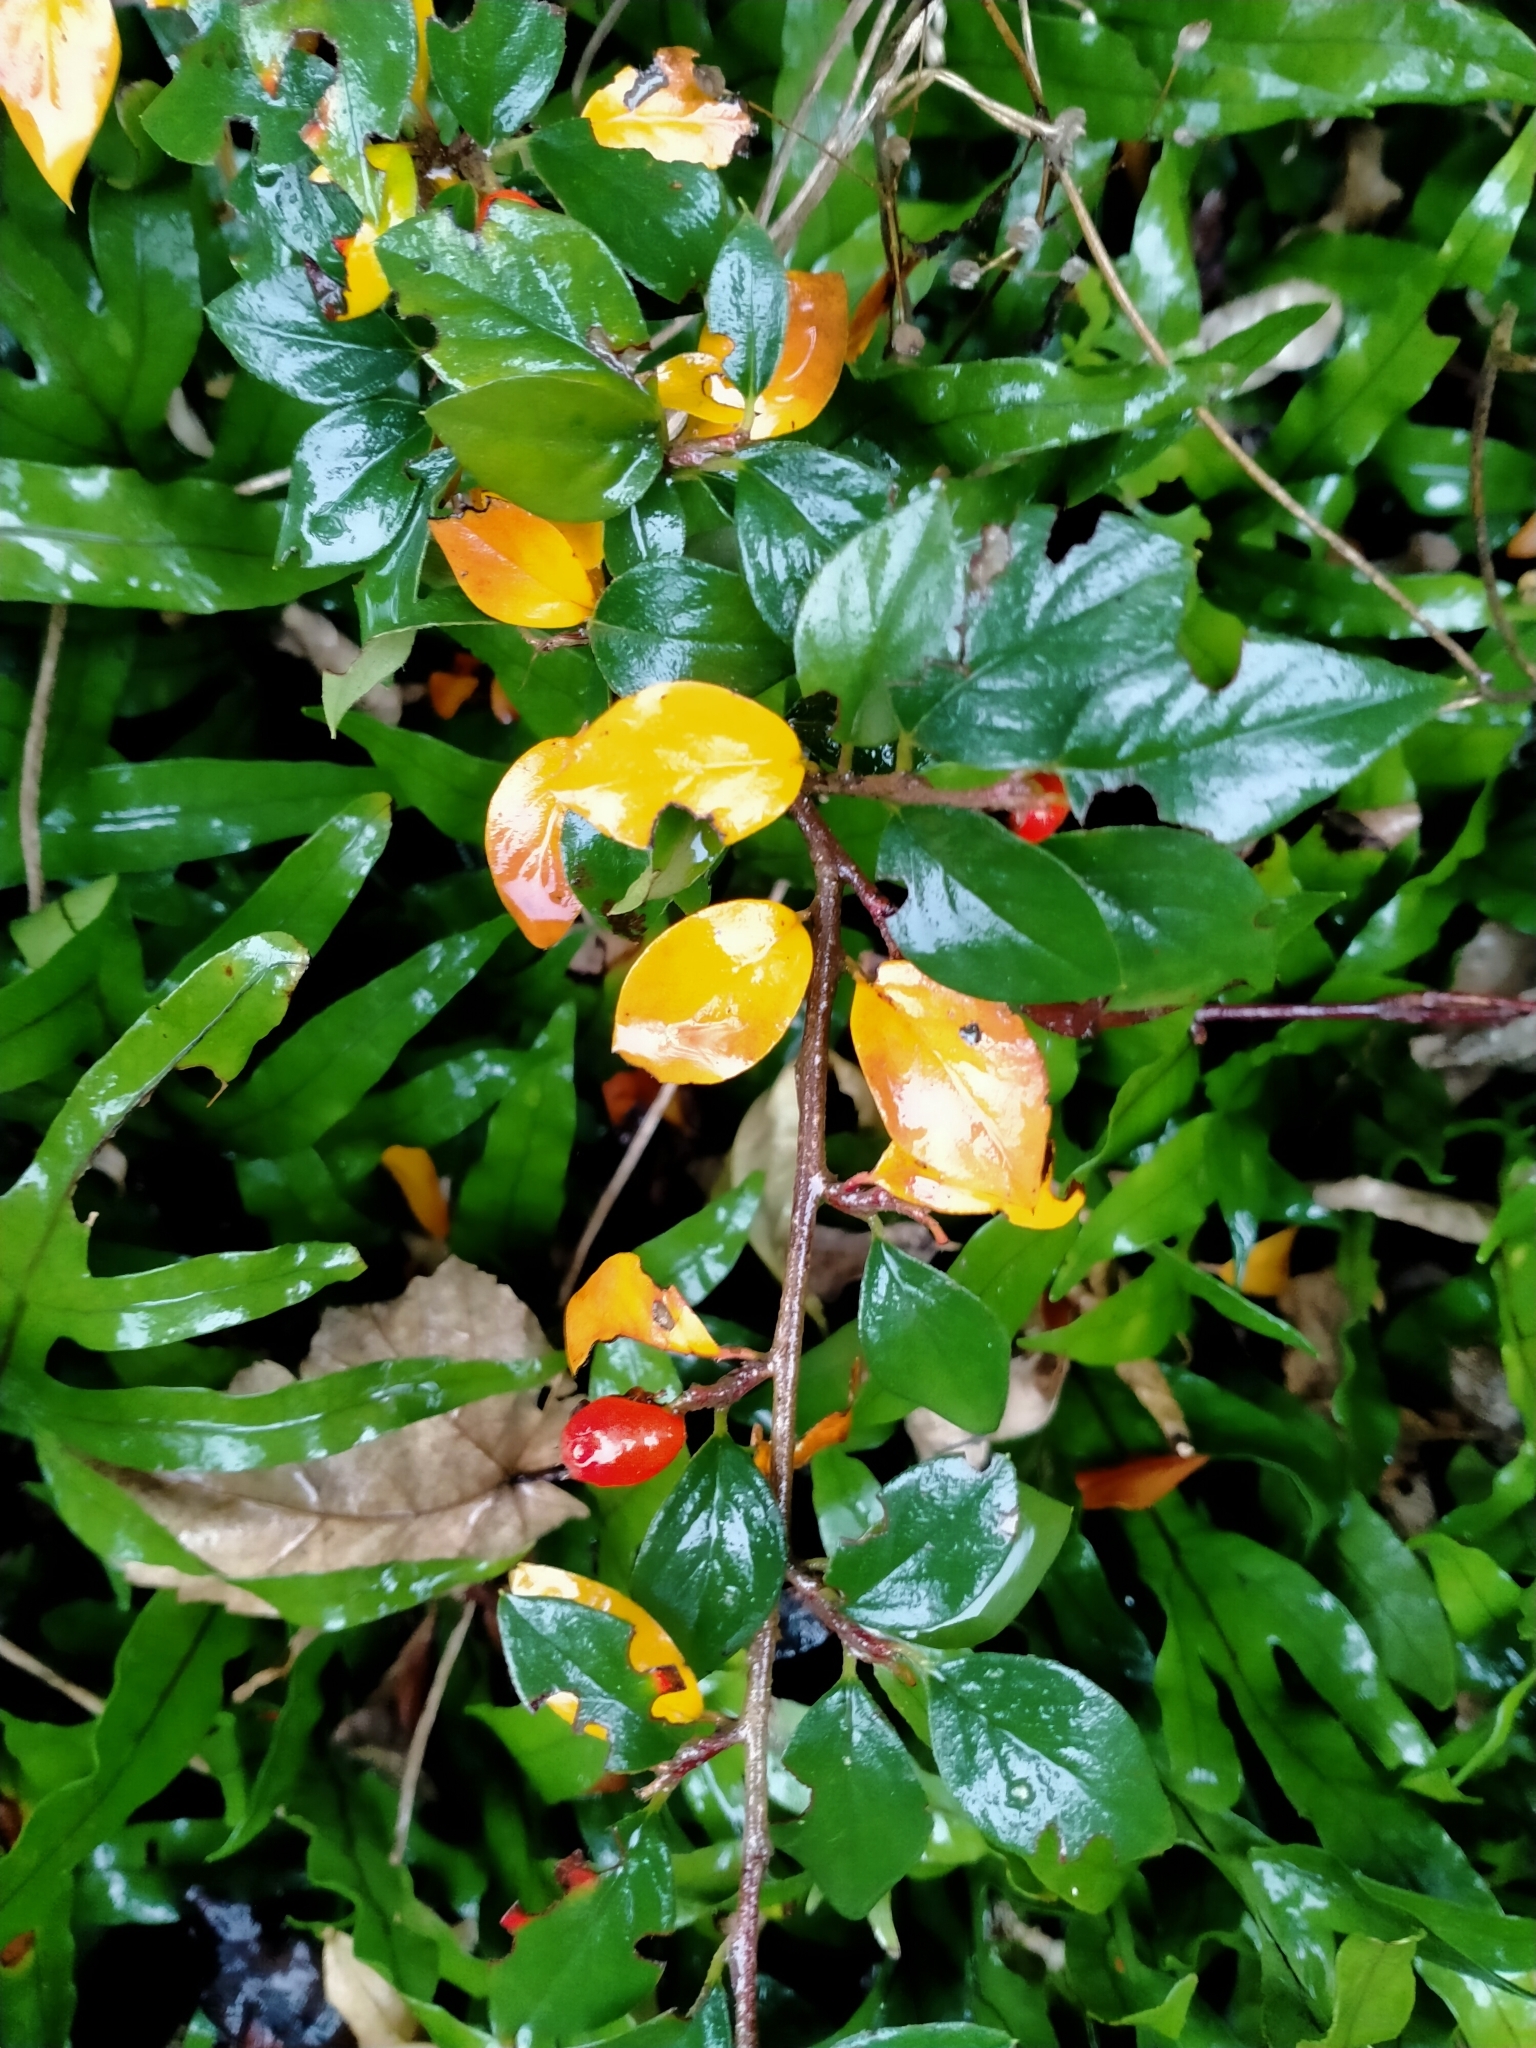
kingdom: Plantae
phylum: Tracheophyta
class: Magnoliopsida
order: Rosales
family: Rosaceae
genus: Cotoneaster
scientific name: Cotoneaster simonsii
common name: Himalayan cotoneaster
